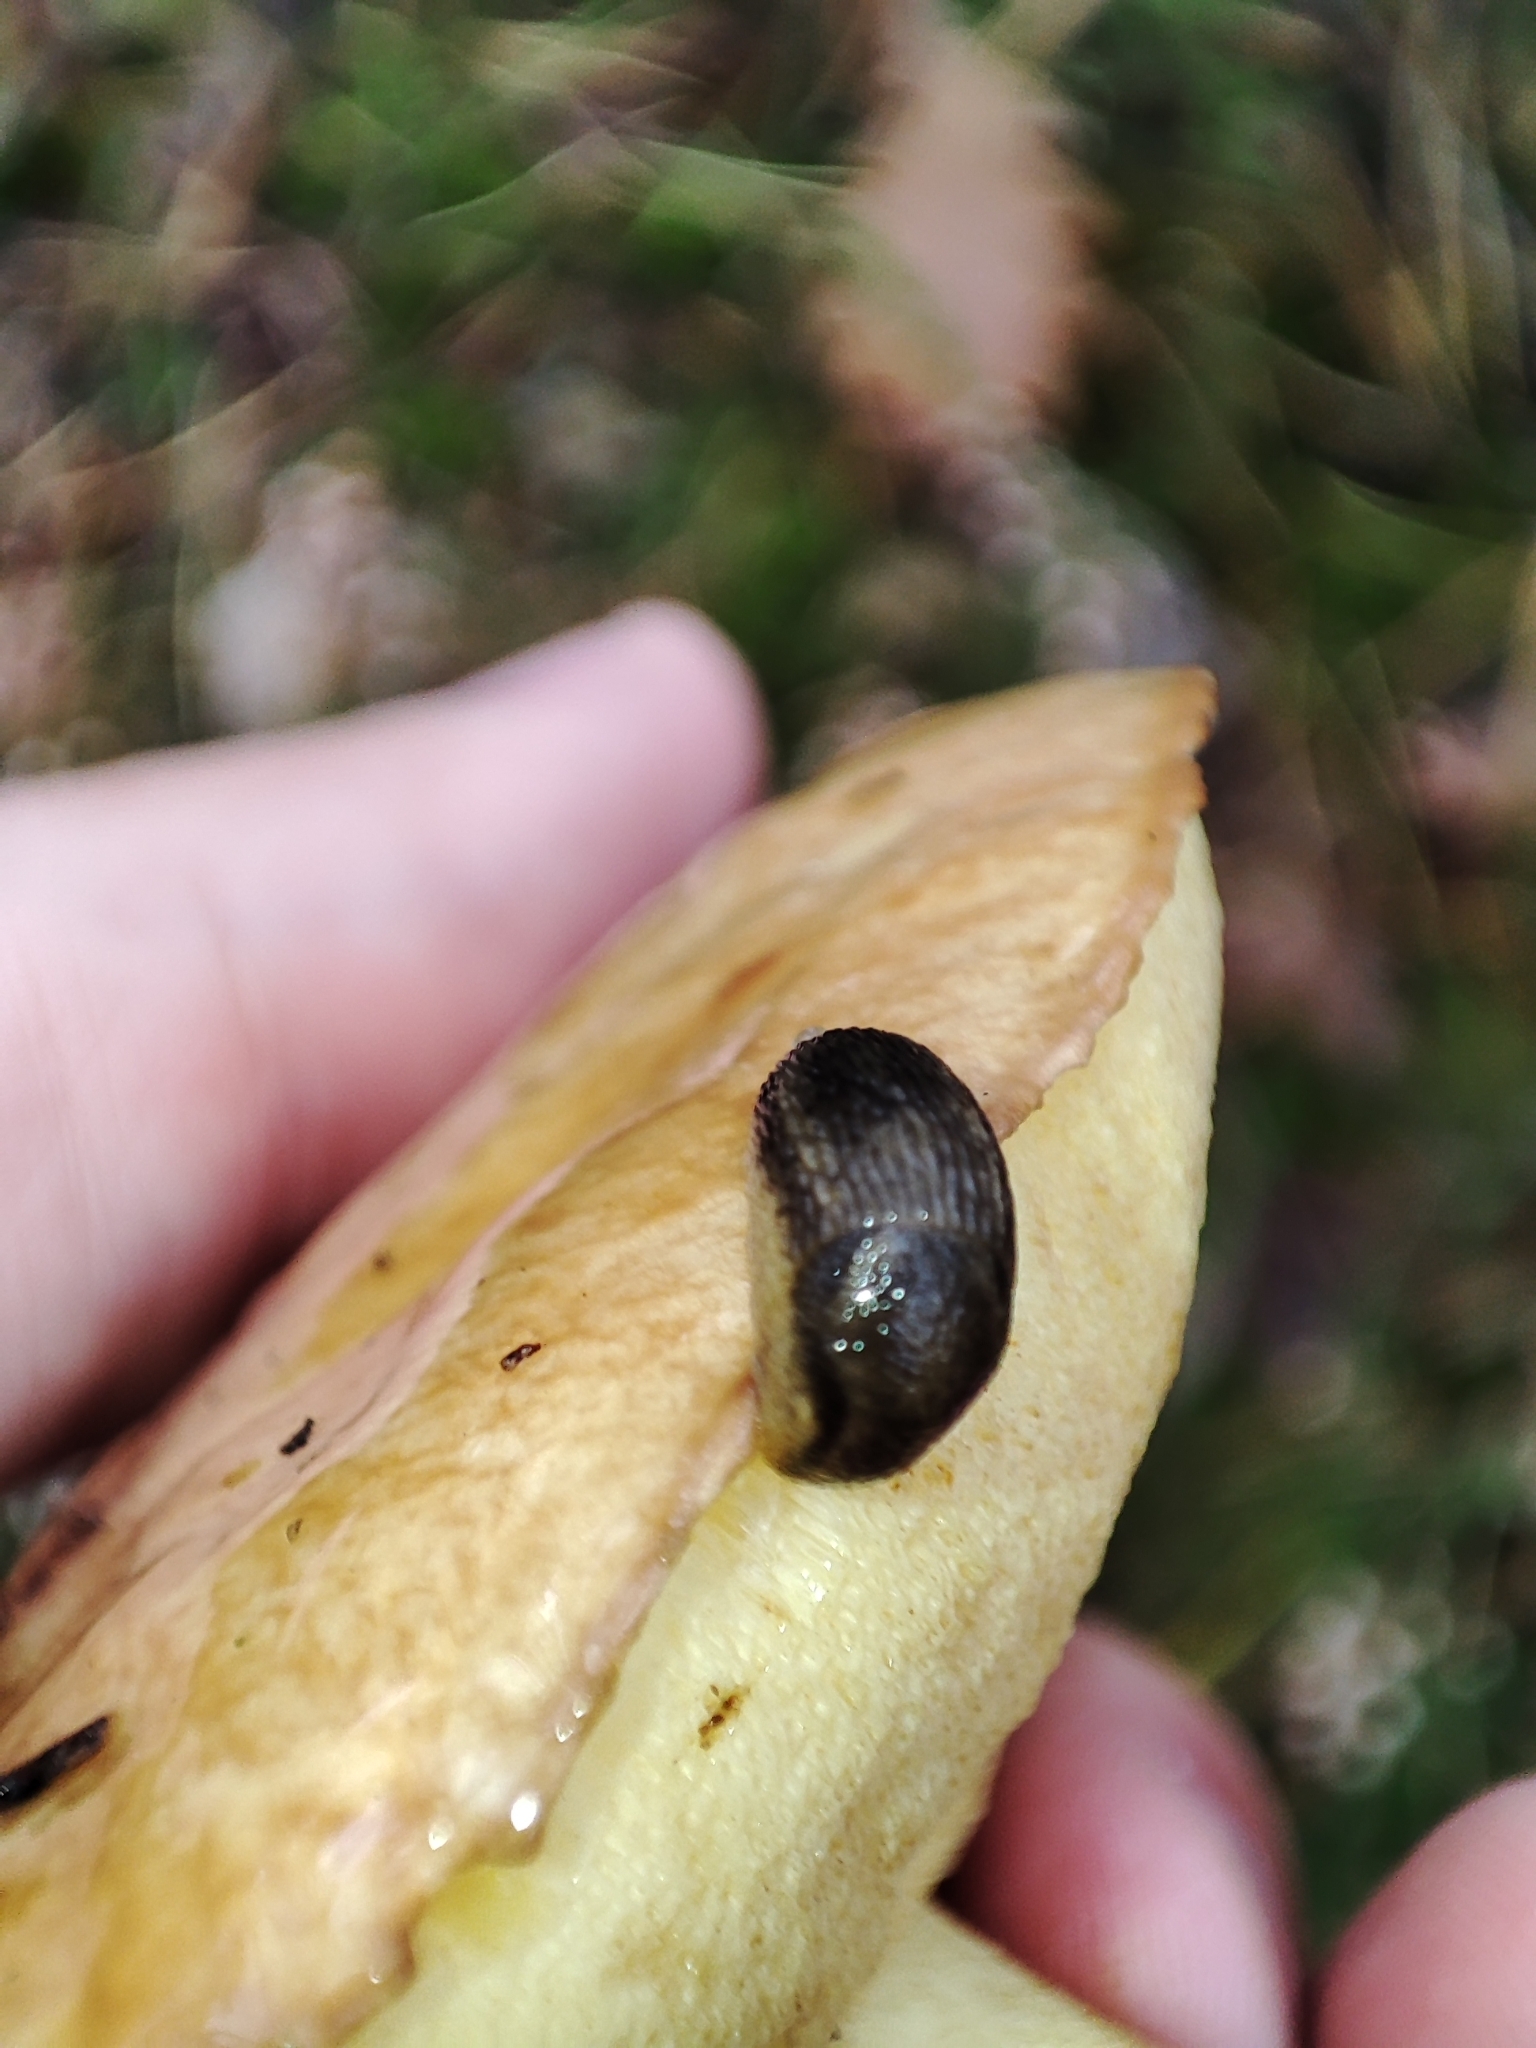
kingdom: Animalia
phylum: Mollusca
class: Gastropoda
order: Stylommatophora
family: Arionidae
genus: Arion
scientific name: Arion fuscus
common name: Northern dusky slug
